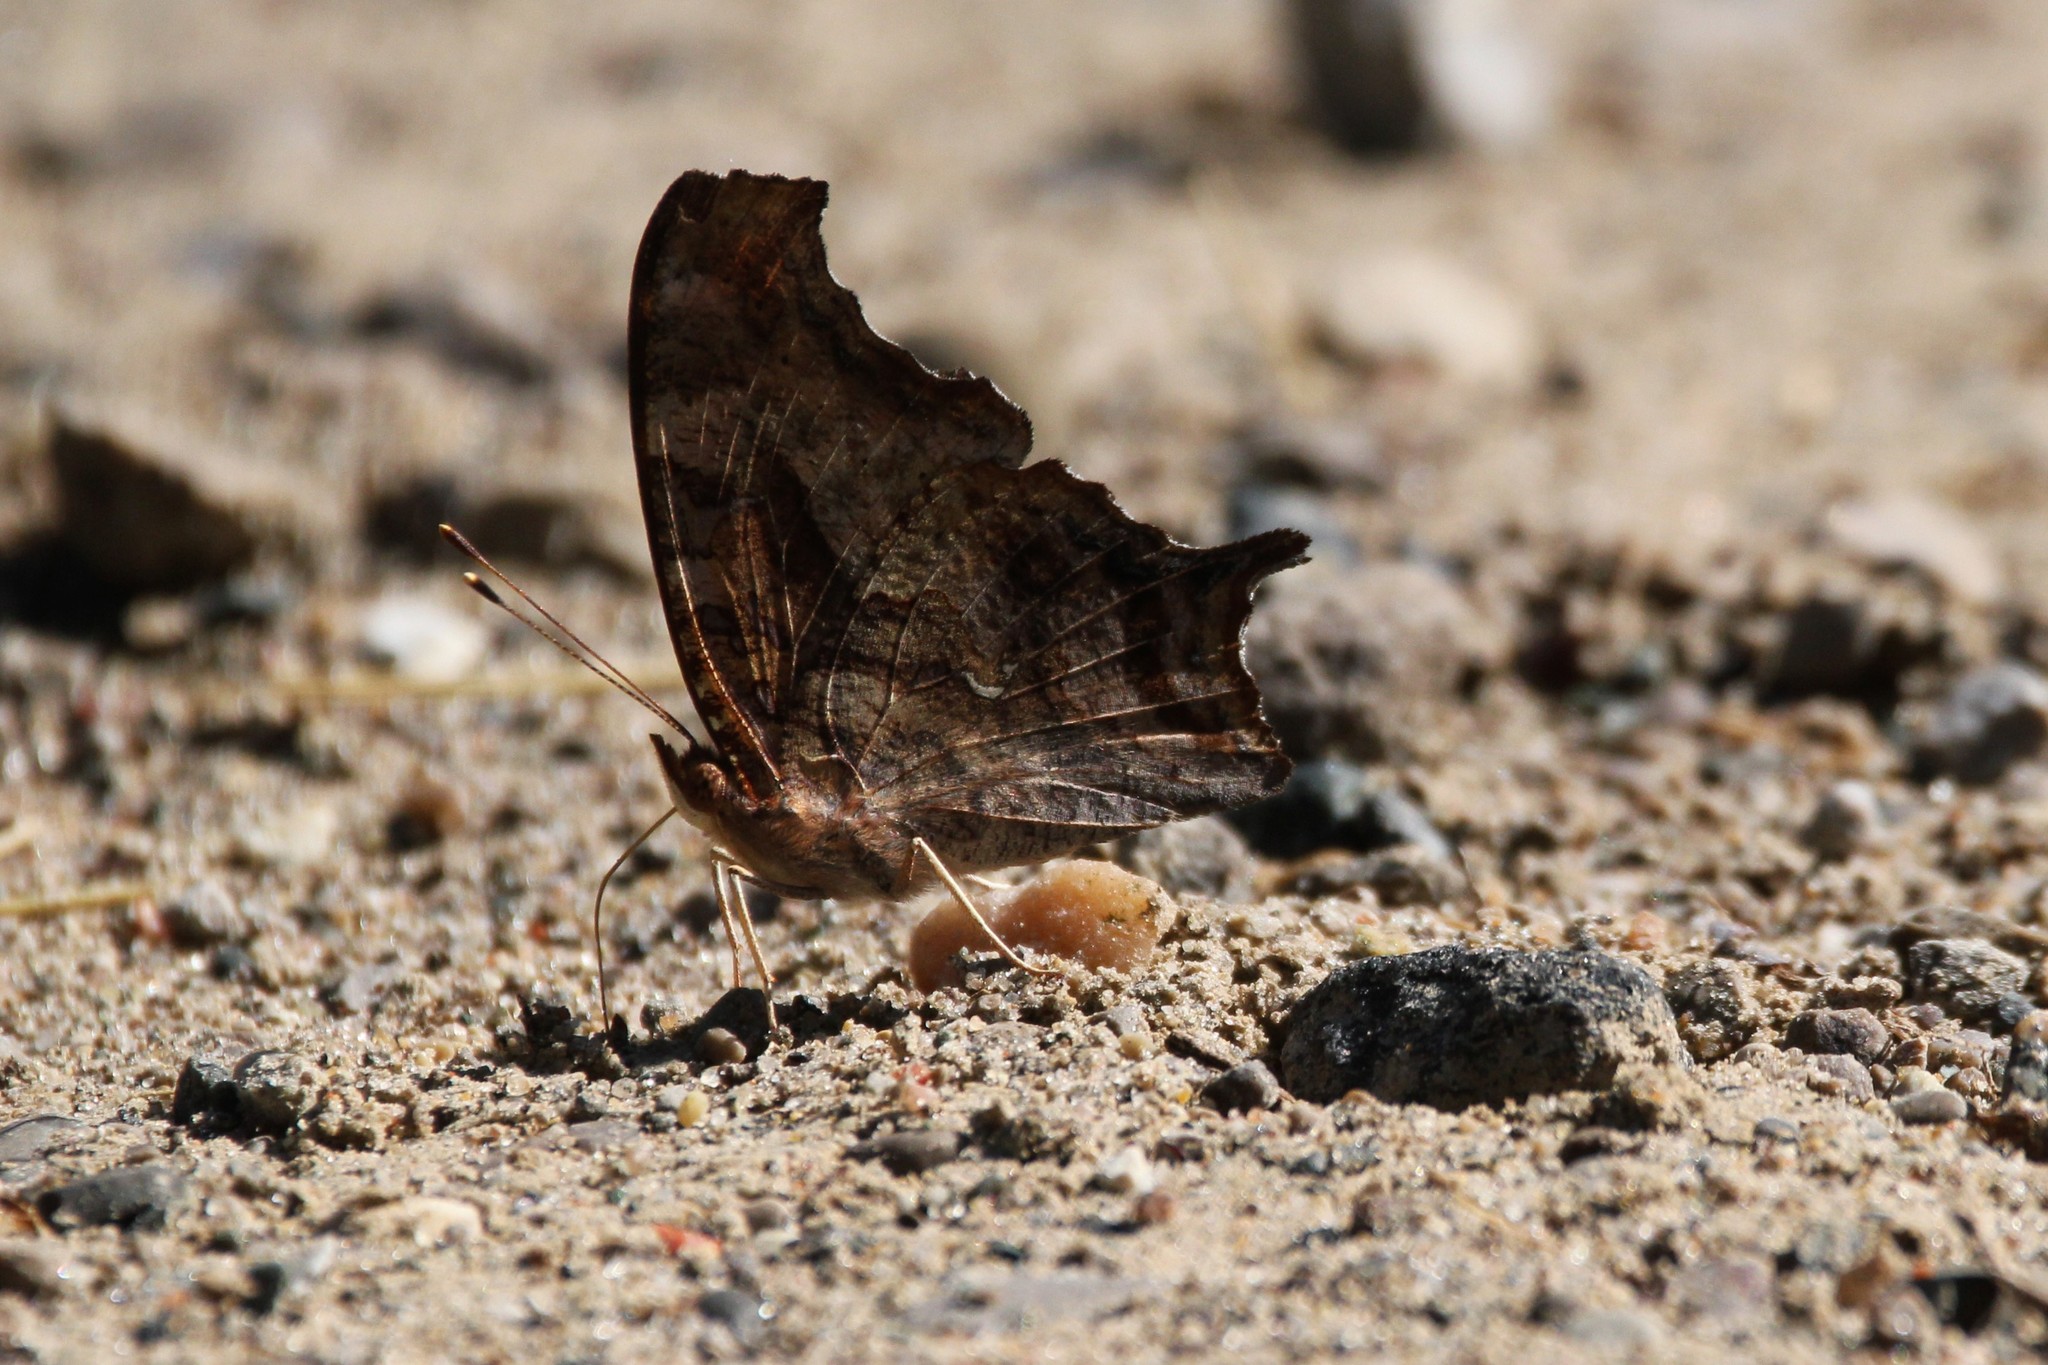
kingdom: Animalia
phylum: Arthropoda
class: Insecta
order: Lepidoptera
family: Nymphalidae
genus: Polygonia
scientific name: Polygonia interrogationis
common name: Question mark
